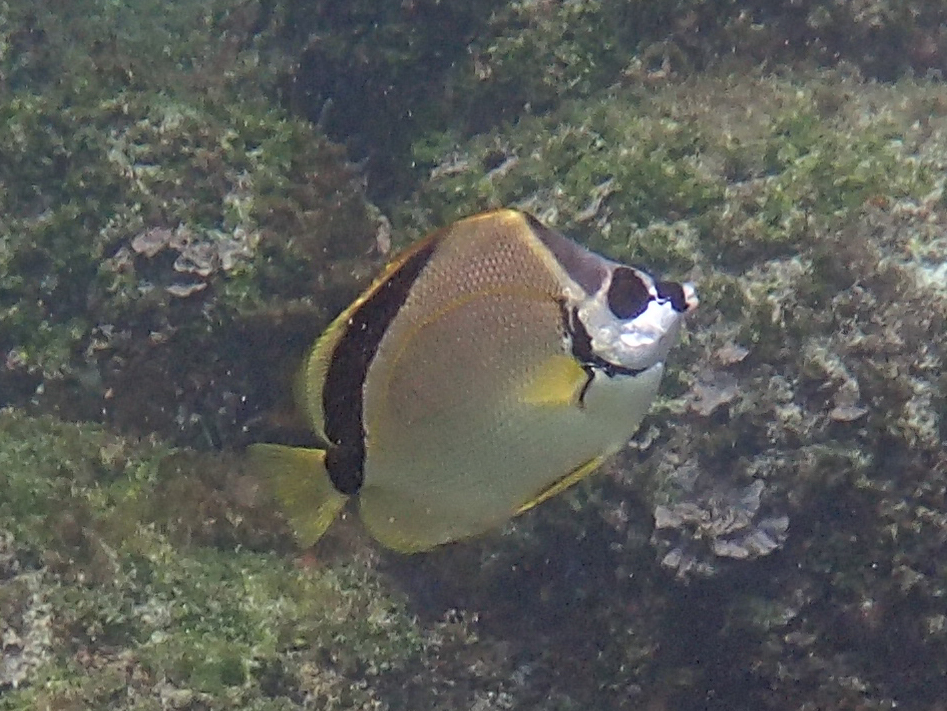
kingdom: Animalia
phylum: Chordata
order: Perciformes
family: Chaetodontidae
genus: Johnrandallia
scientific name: Johnrandallia nigrirostris
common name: Barberfish
